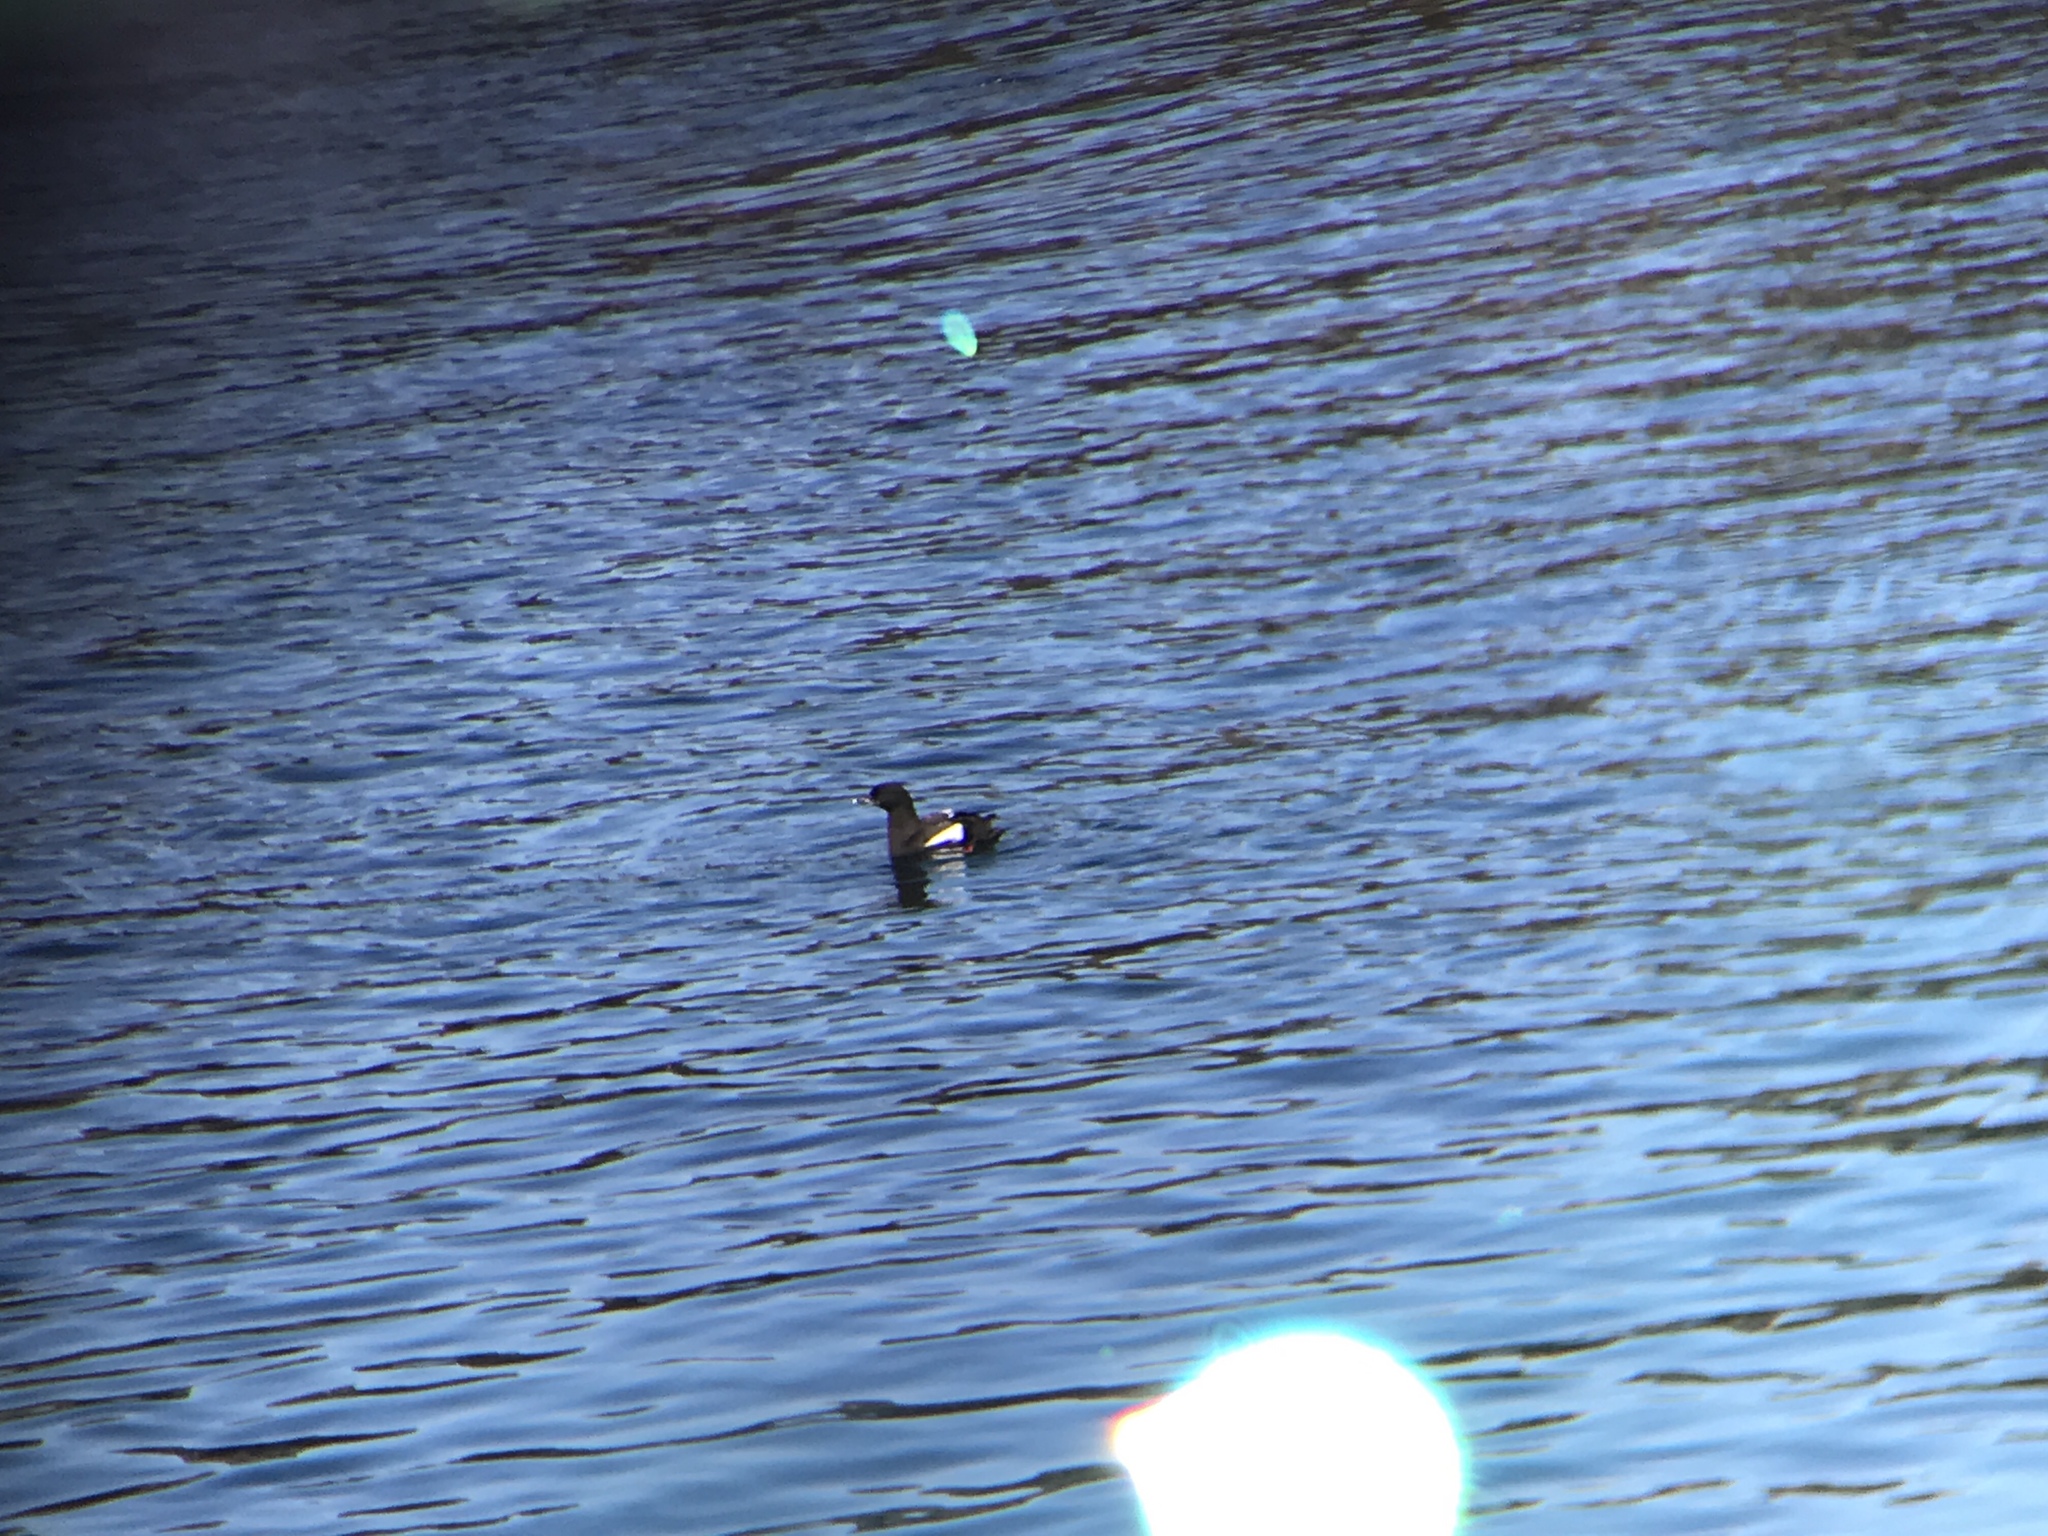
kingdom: Animalia
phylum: Chordata
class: Aves
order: Charadriiformes
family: Alcidae
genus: Cepphus
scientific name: Cepphus grylle
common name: Black guillemot
